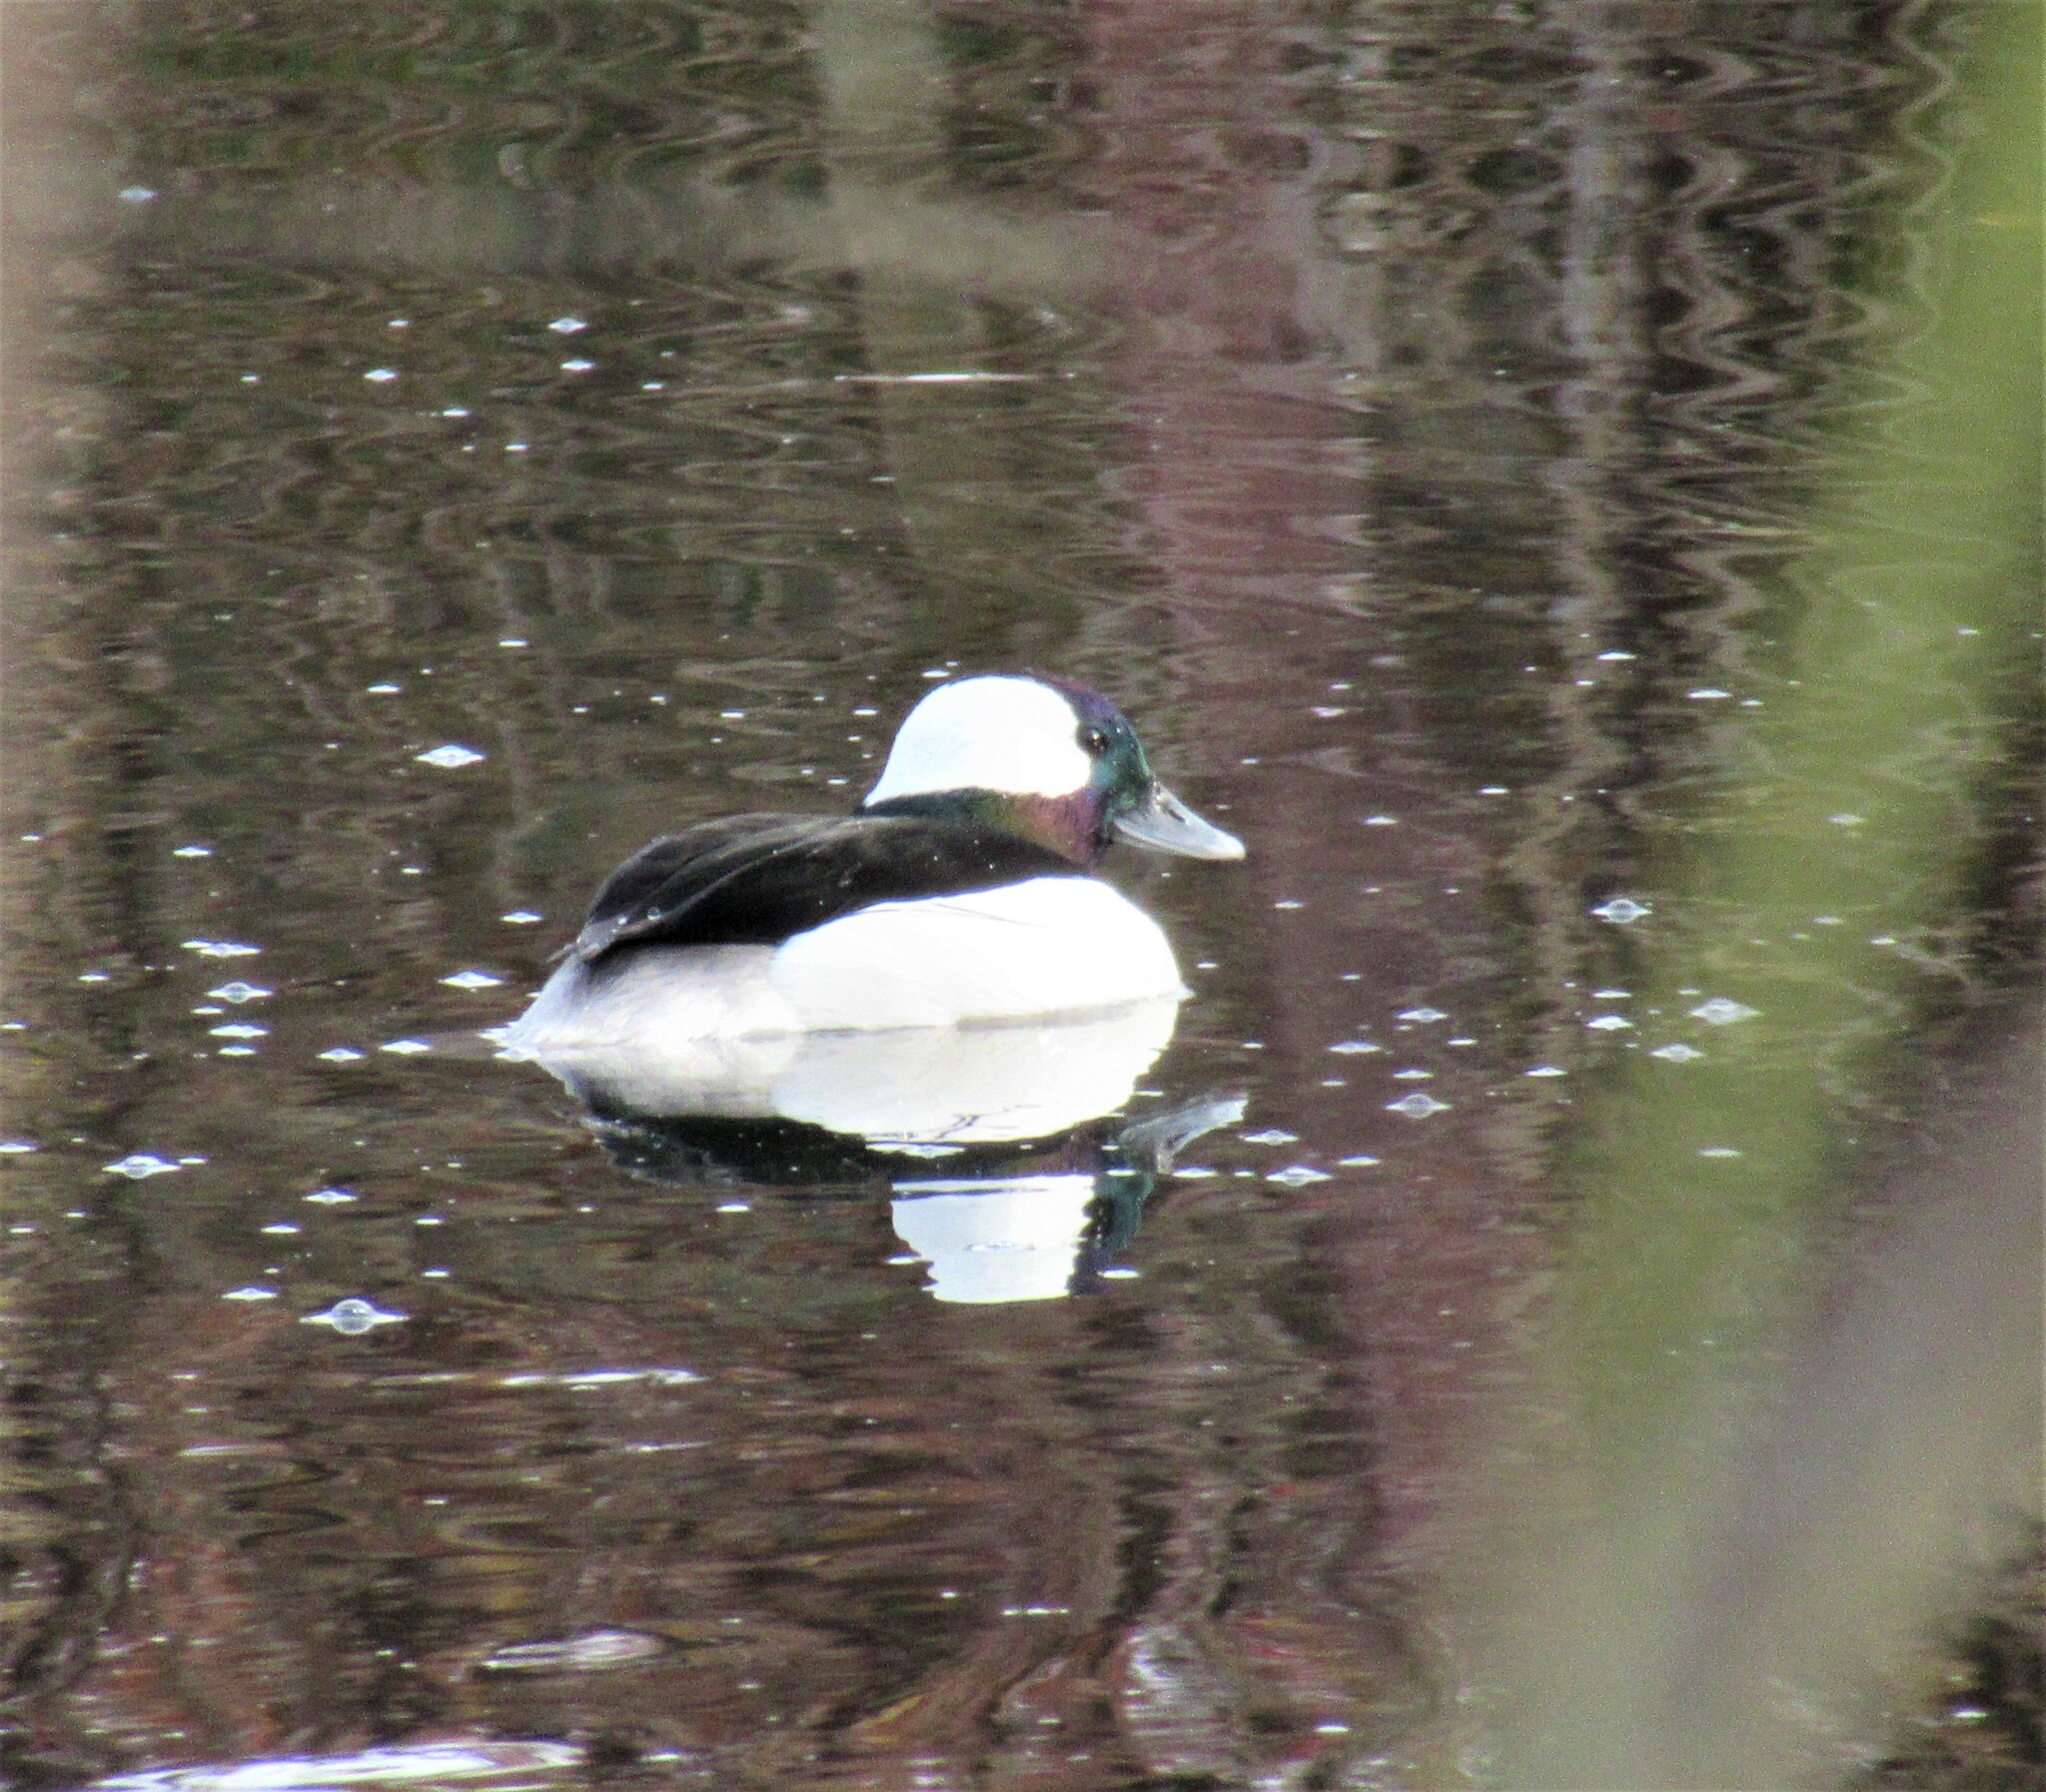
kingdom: Animalia
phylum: Chordata
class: Aves
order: Anseriformes
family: Anatidae
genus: Bucephala
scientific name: Bucephala albeola
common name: Bufflehead
